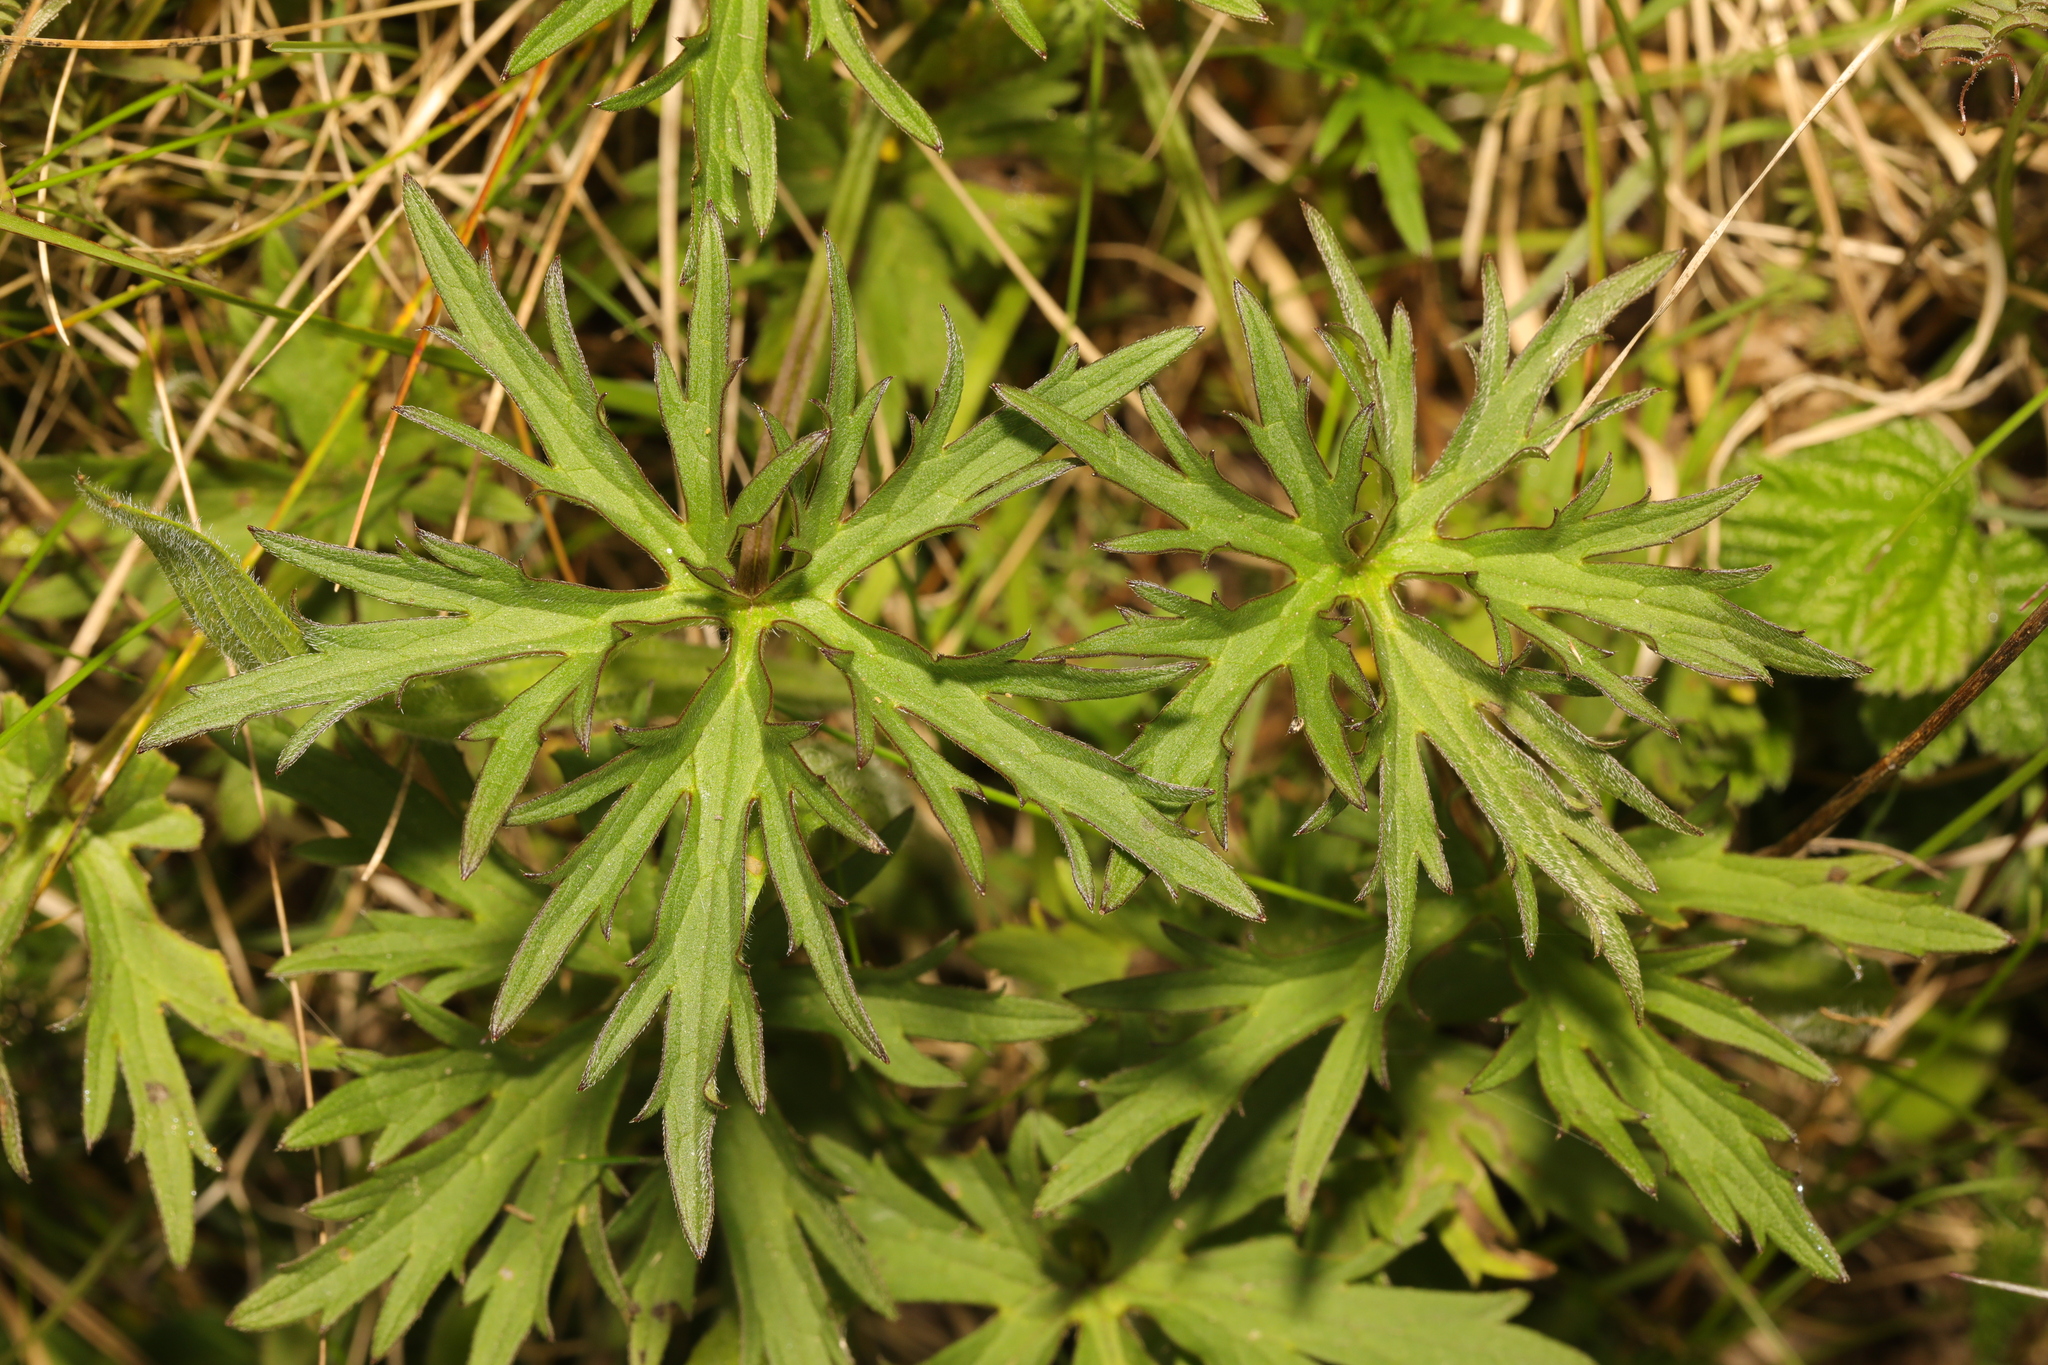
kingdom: Plantae
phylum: Tracheophyta
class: Magnoliopsida
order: Ranunculales
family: Ranunculaceae
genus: Ranunculus
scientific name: Ranunculus acris
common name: Meadow buttercup
